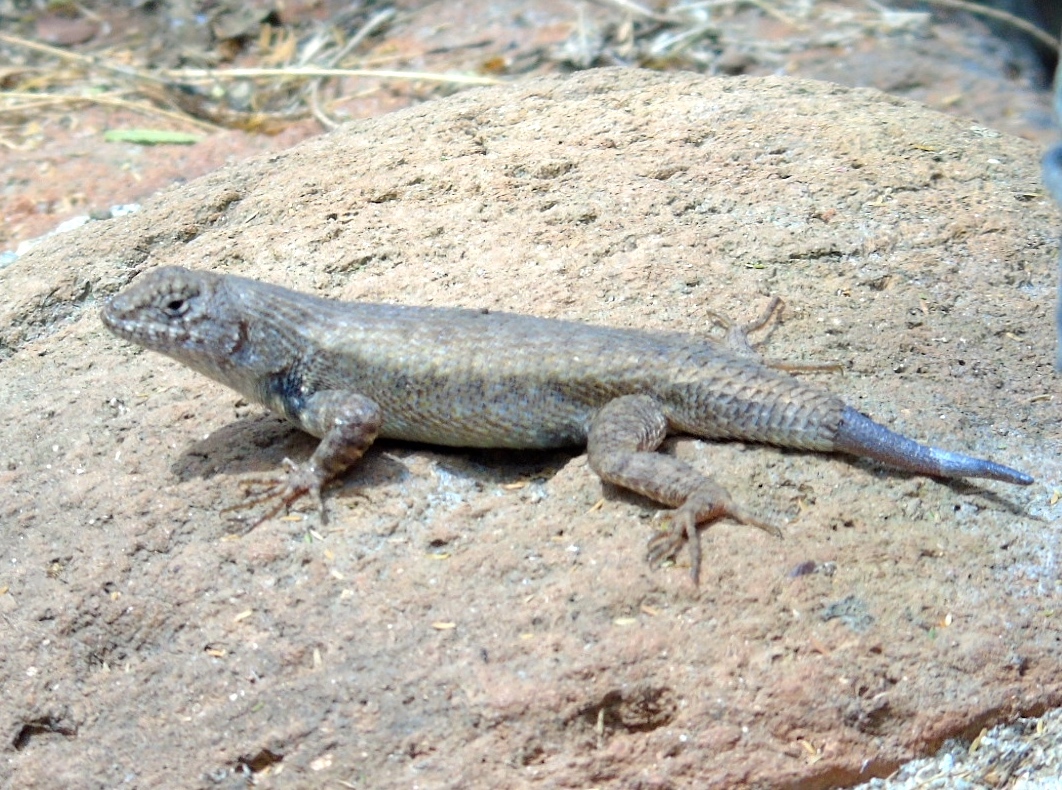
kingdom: Animalia
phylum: Chordata
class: Squamata
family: Phrynosomatidae
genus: Sceloporus
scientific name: Sceloporus nelsoni
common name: Nelson's spiny lizard
